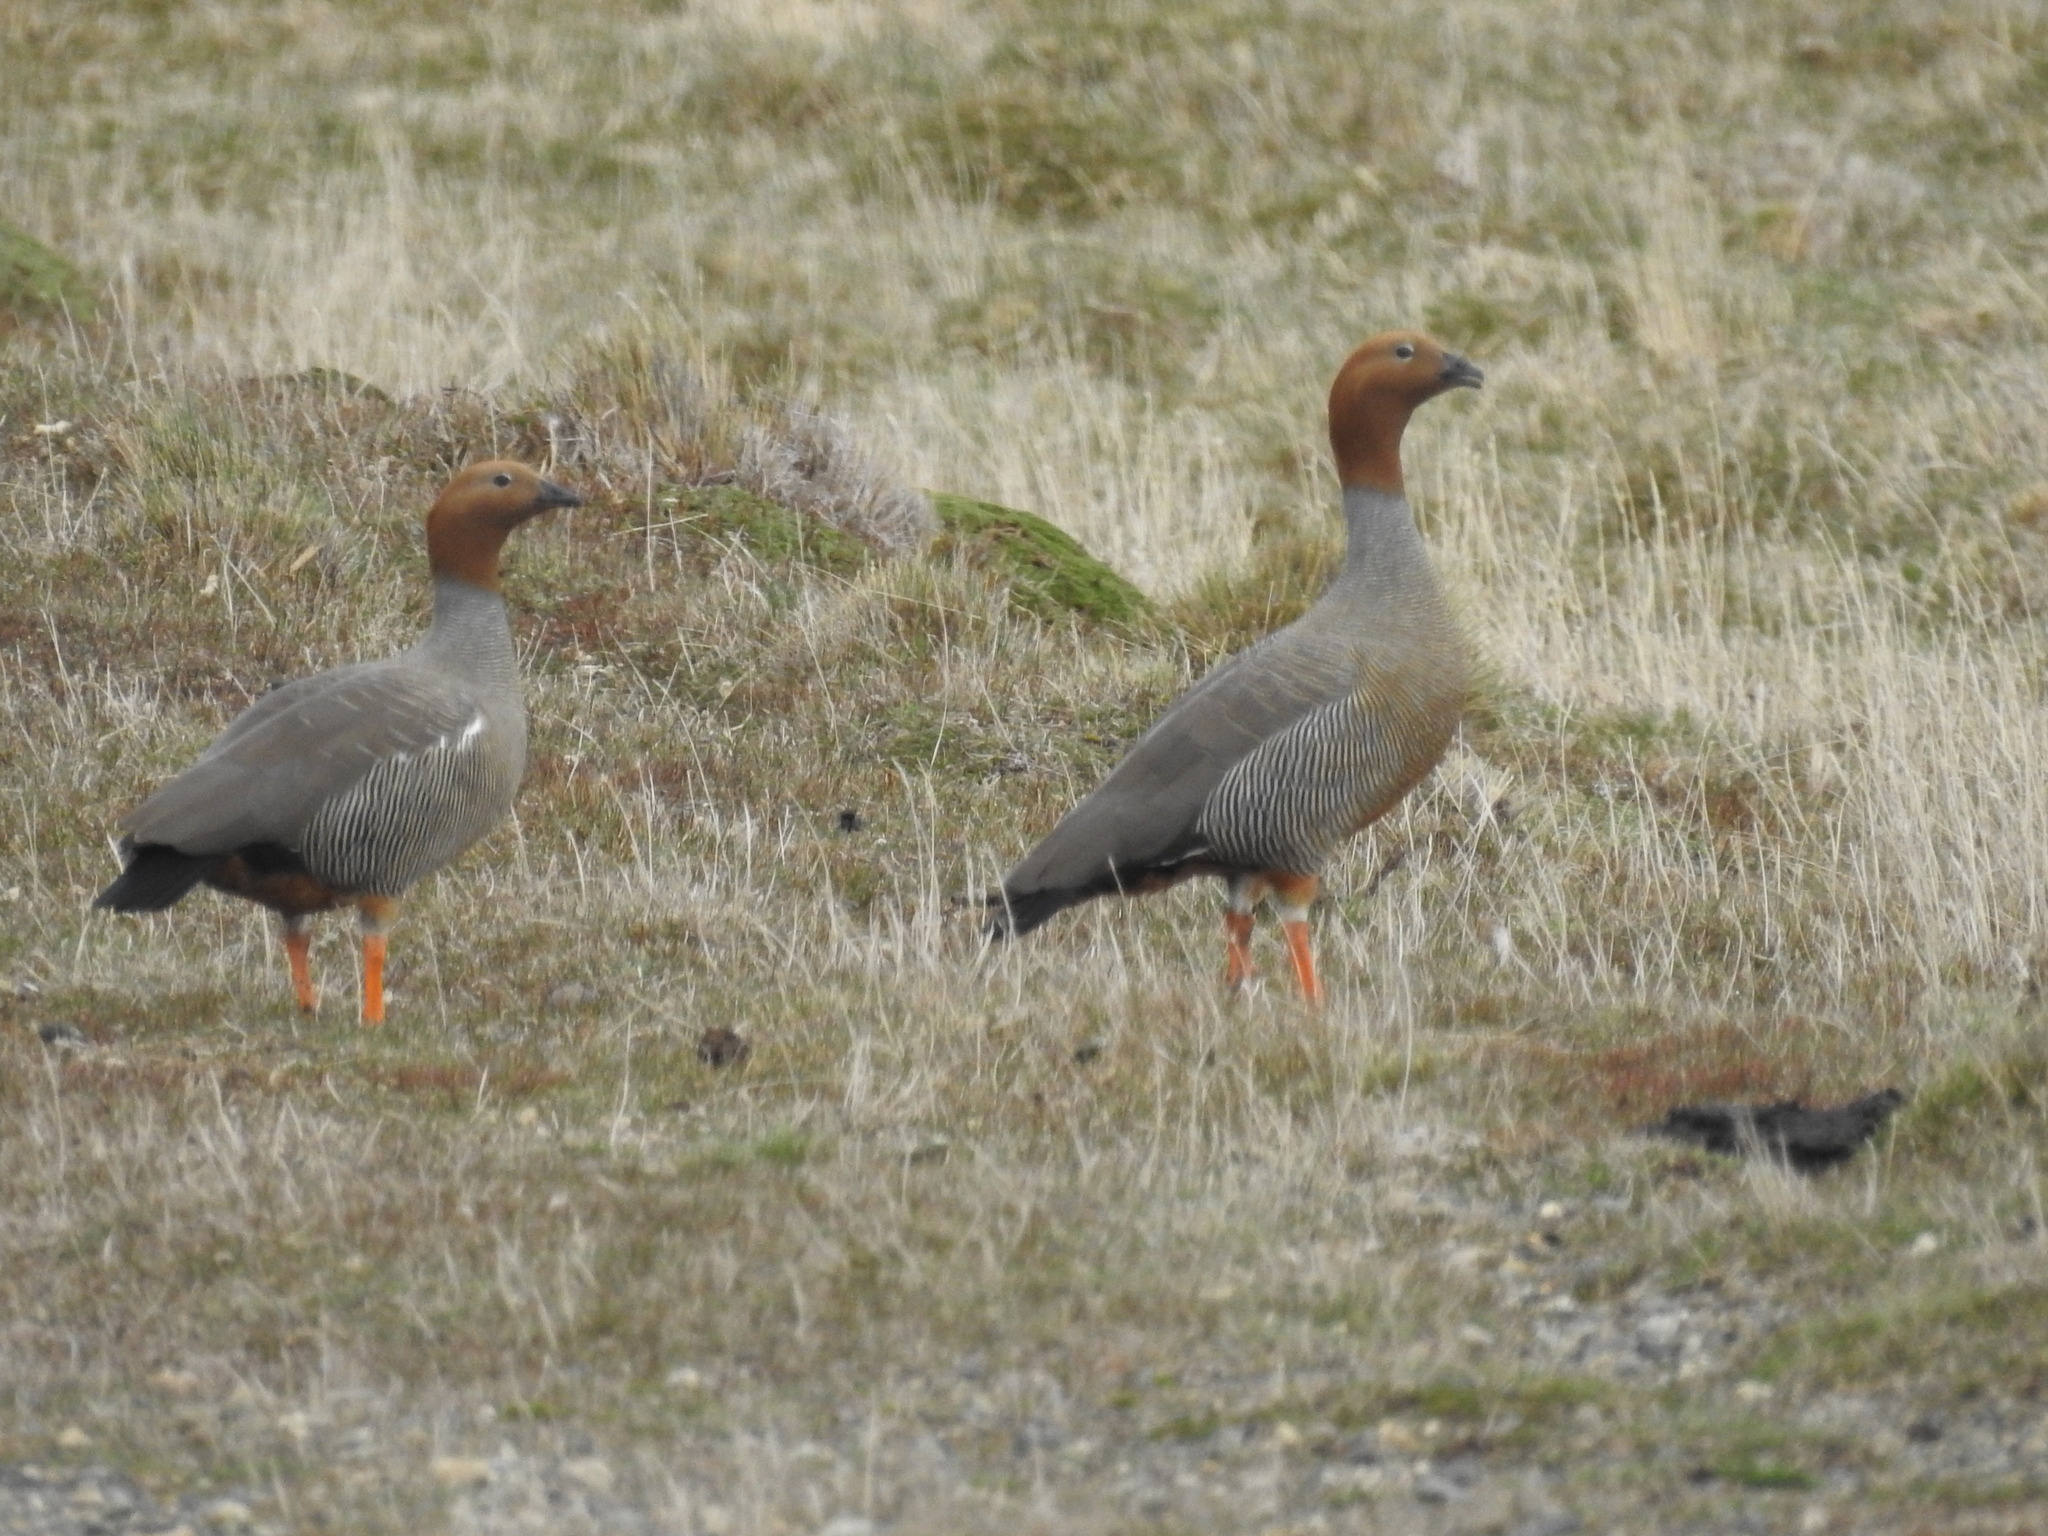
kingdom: Animalia
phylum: Chordata
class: Aves
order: Anseriformes
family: Anatidae
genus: Chloephaga
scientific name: Chloephaga rubidiceps
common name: Ruddy-headed goose
